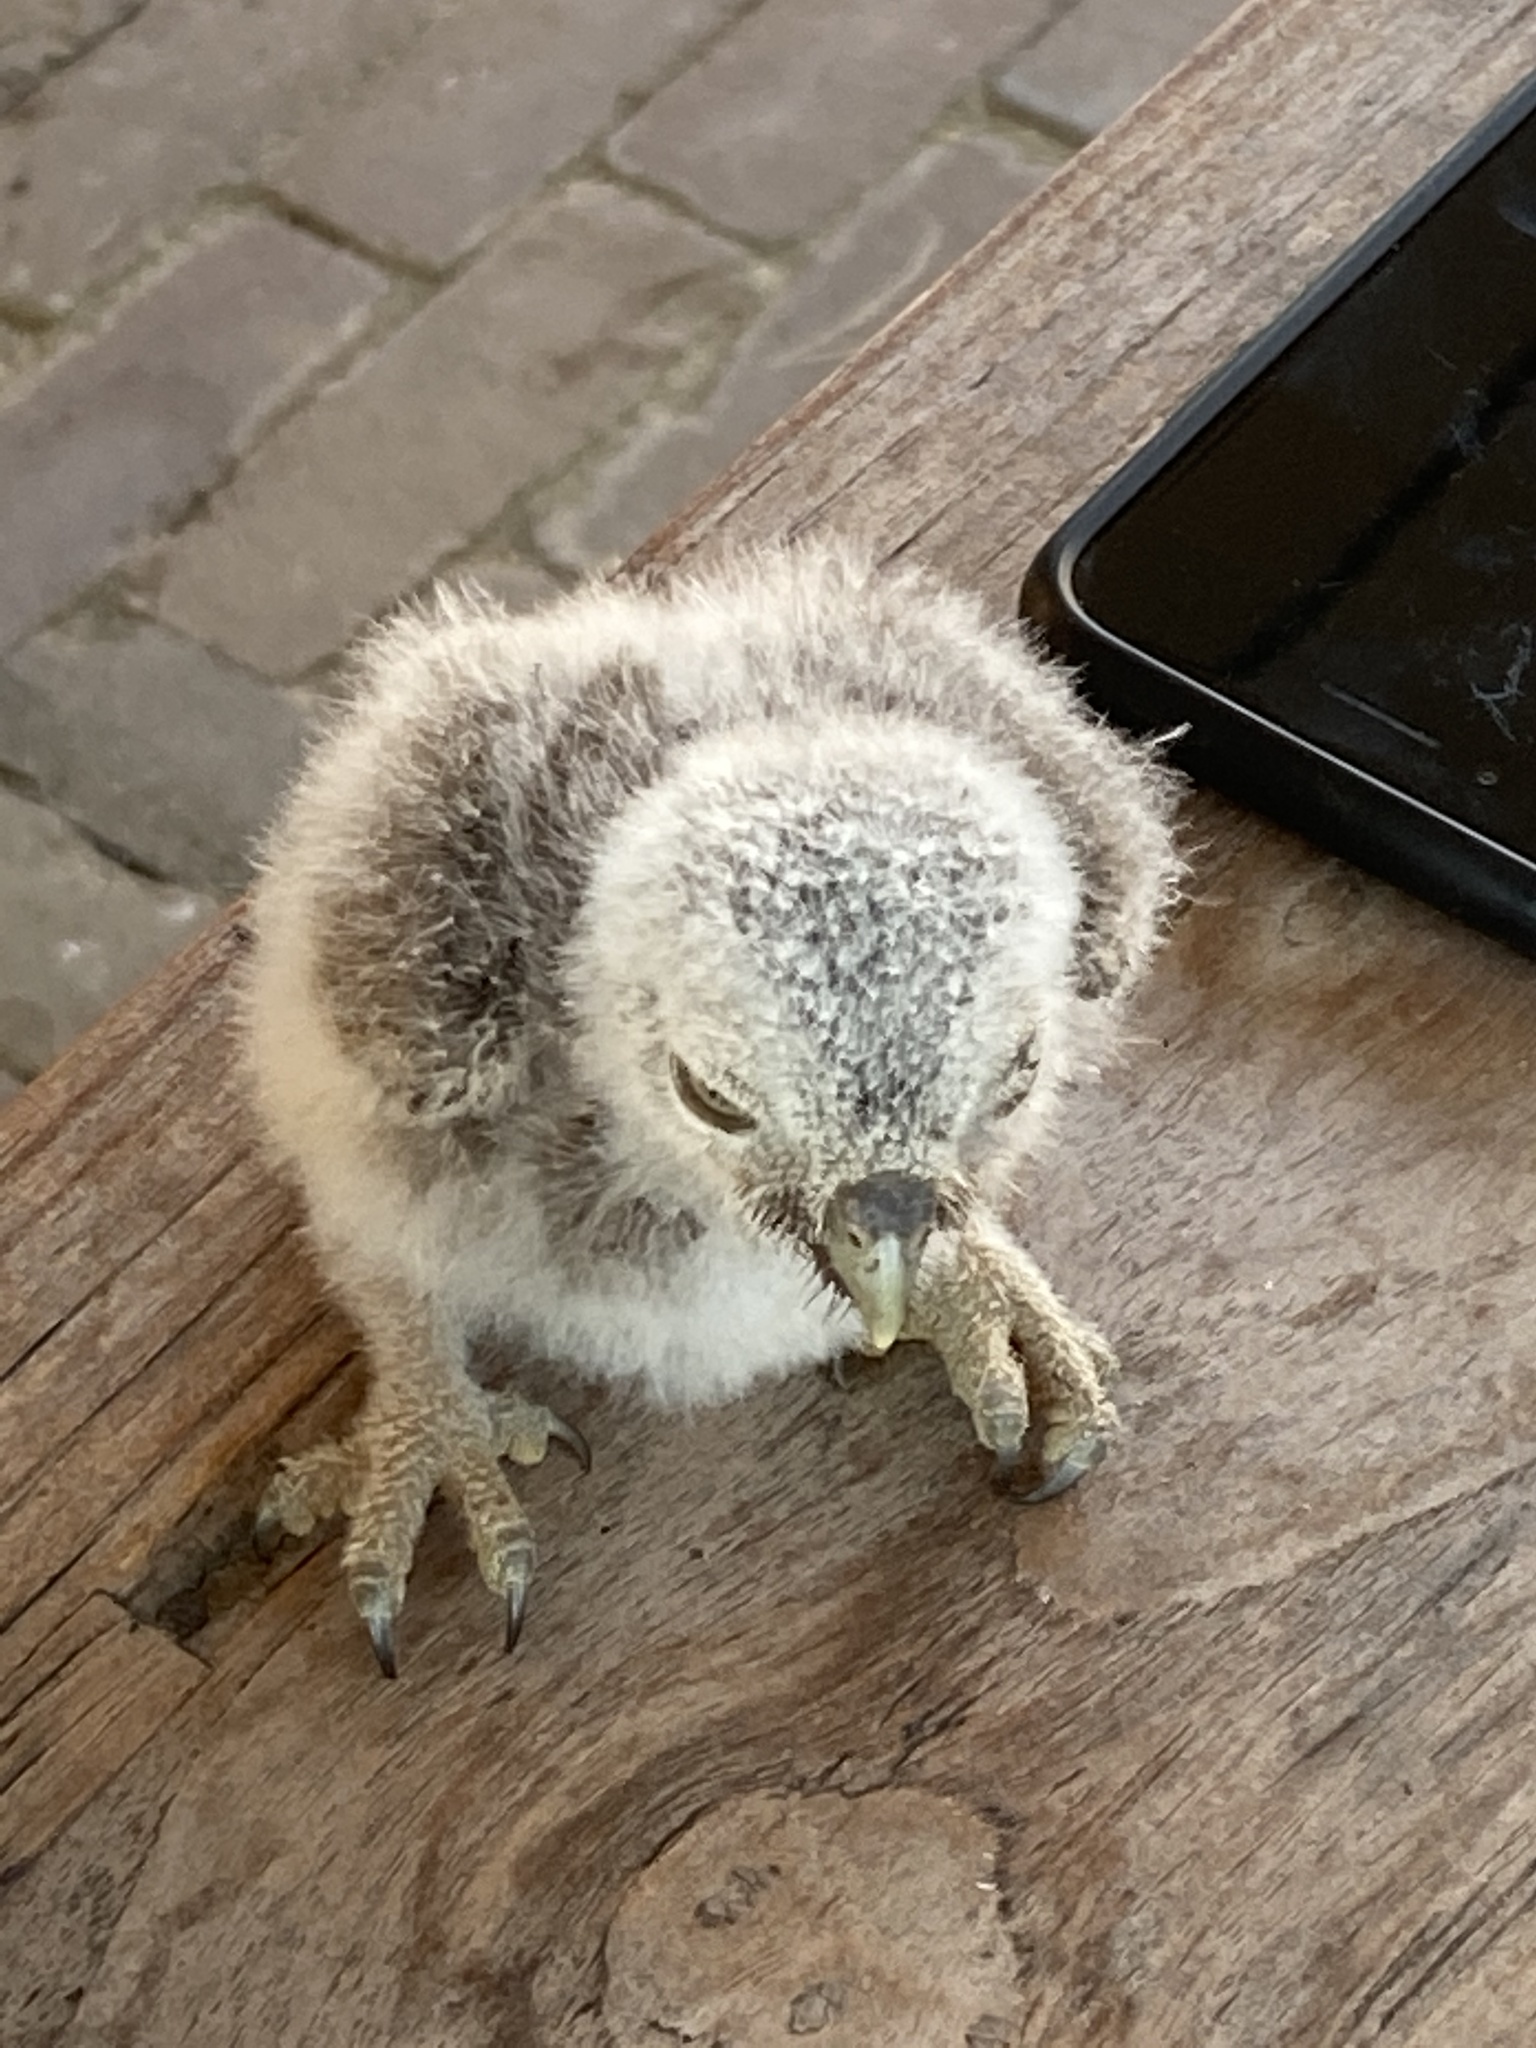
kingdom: Animalia
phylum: Chordata
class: Aves
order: Strigiformes
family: Strigidae
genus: Athene
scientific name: Athene noctua
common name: Little owl
